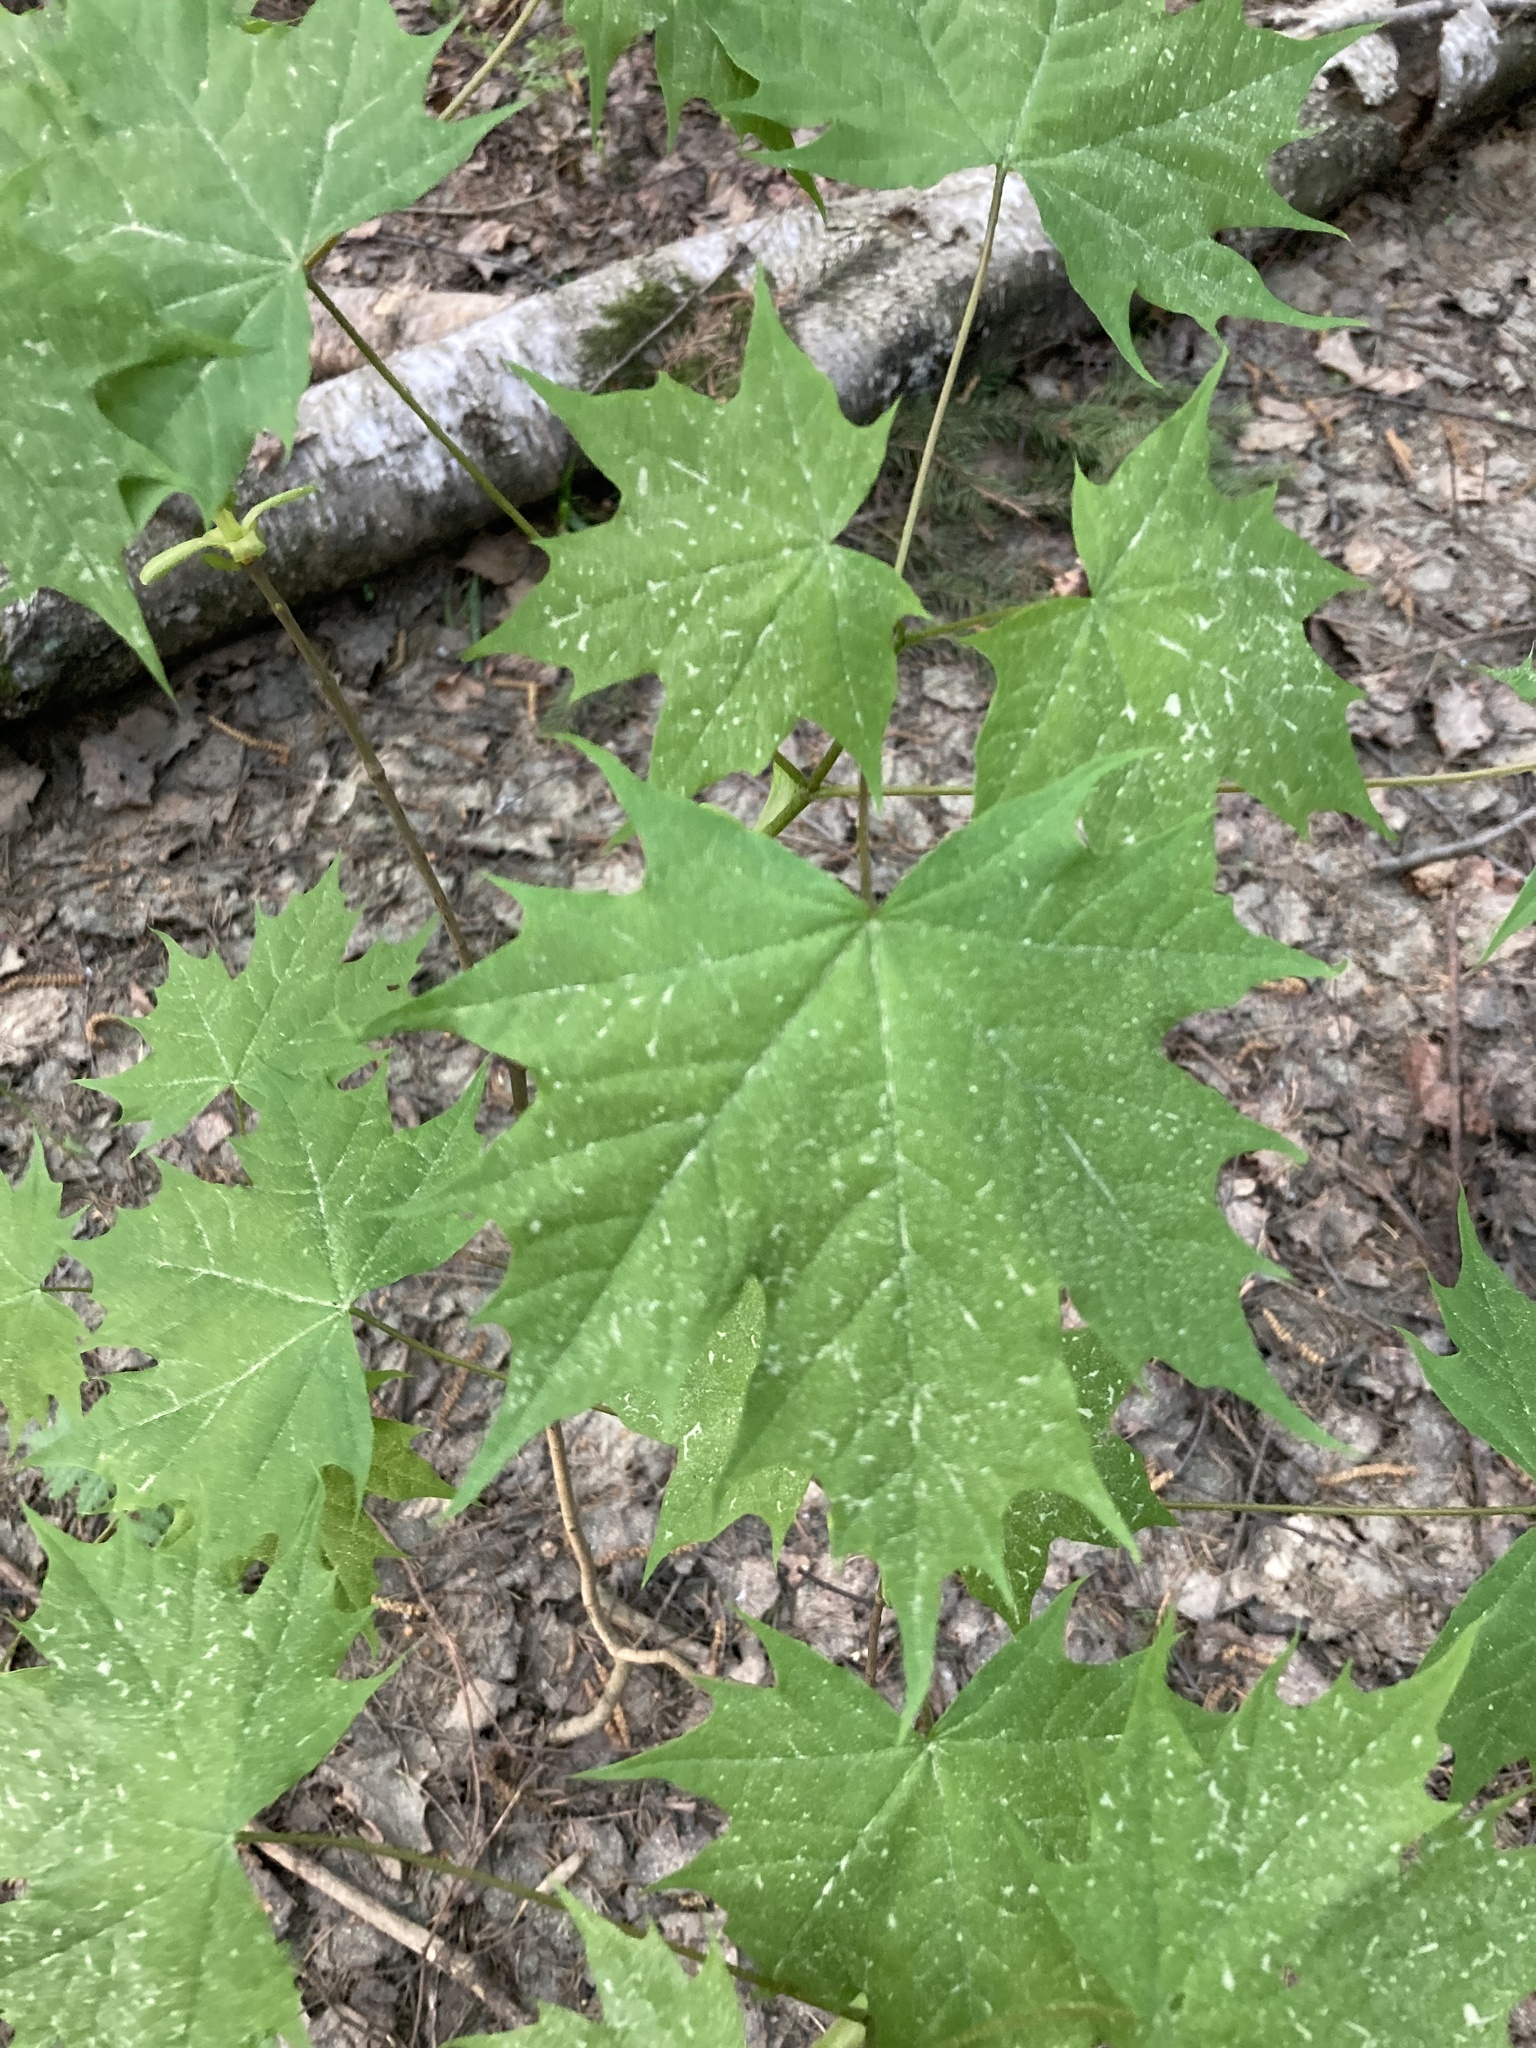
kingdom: Plantae
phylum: Tracheophyta
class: Magnoliopsida
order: Sapindales
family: Sapindaceae
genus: Acer
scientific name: Acer platanoides
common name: Norway maple
